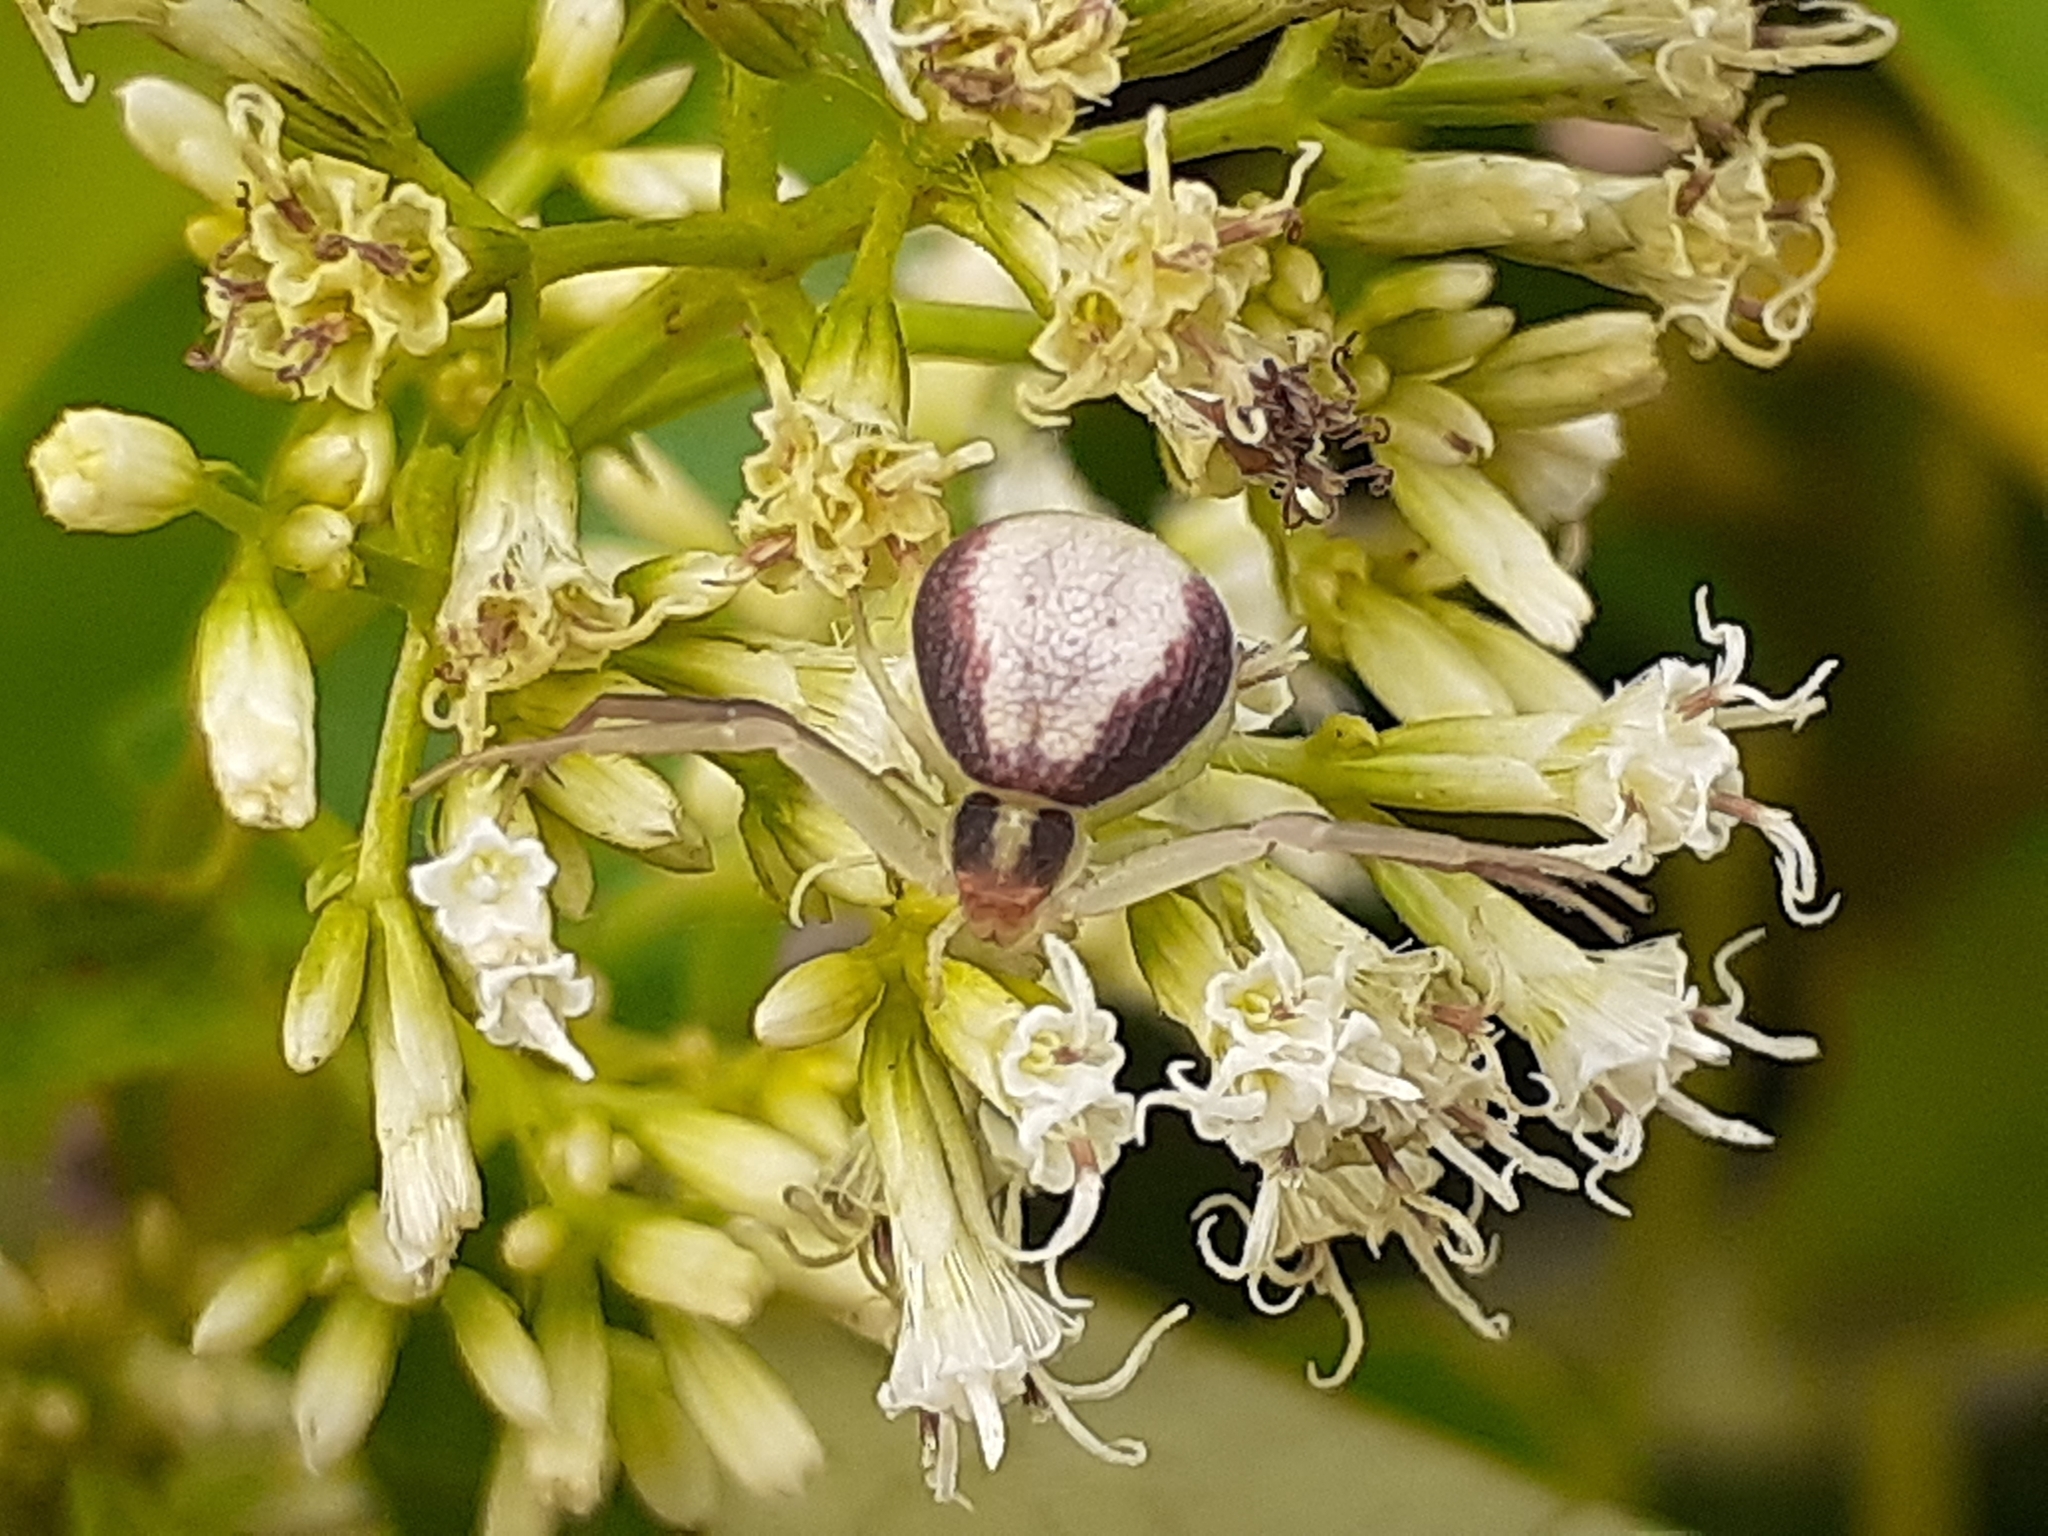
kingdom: Animalia
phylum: Arthropoda
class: Arachnida
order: Araneae
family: Thomisidae
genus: Ebrechtella
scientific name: Ebrechtella pseudovatia
